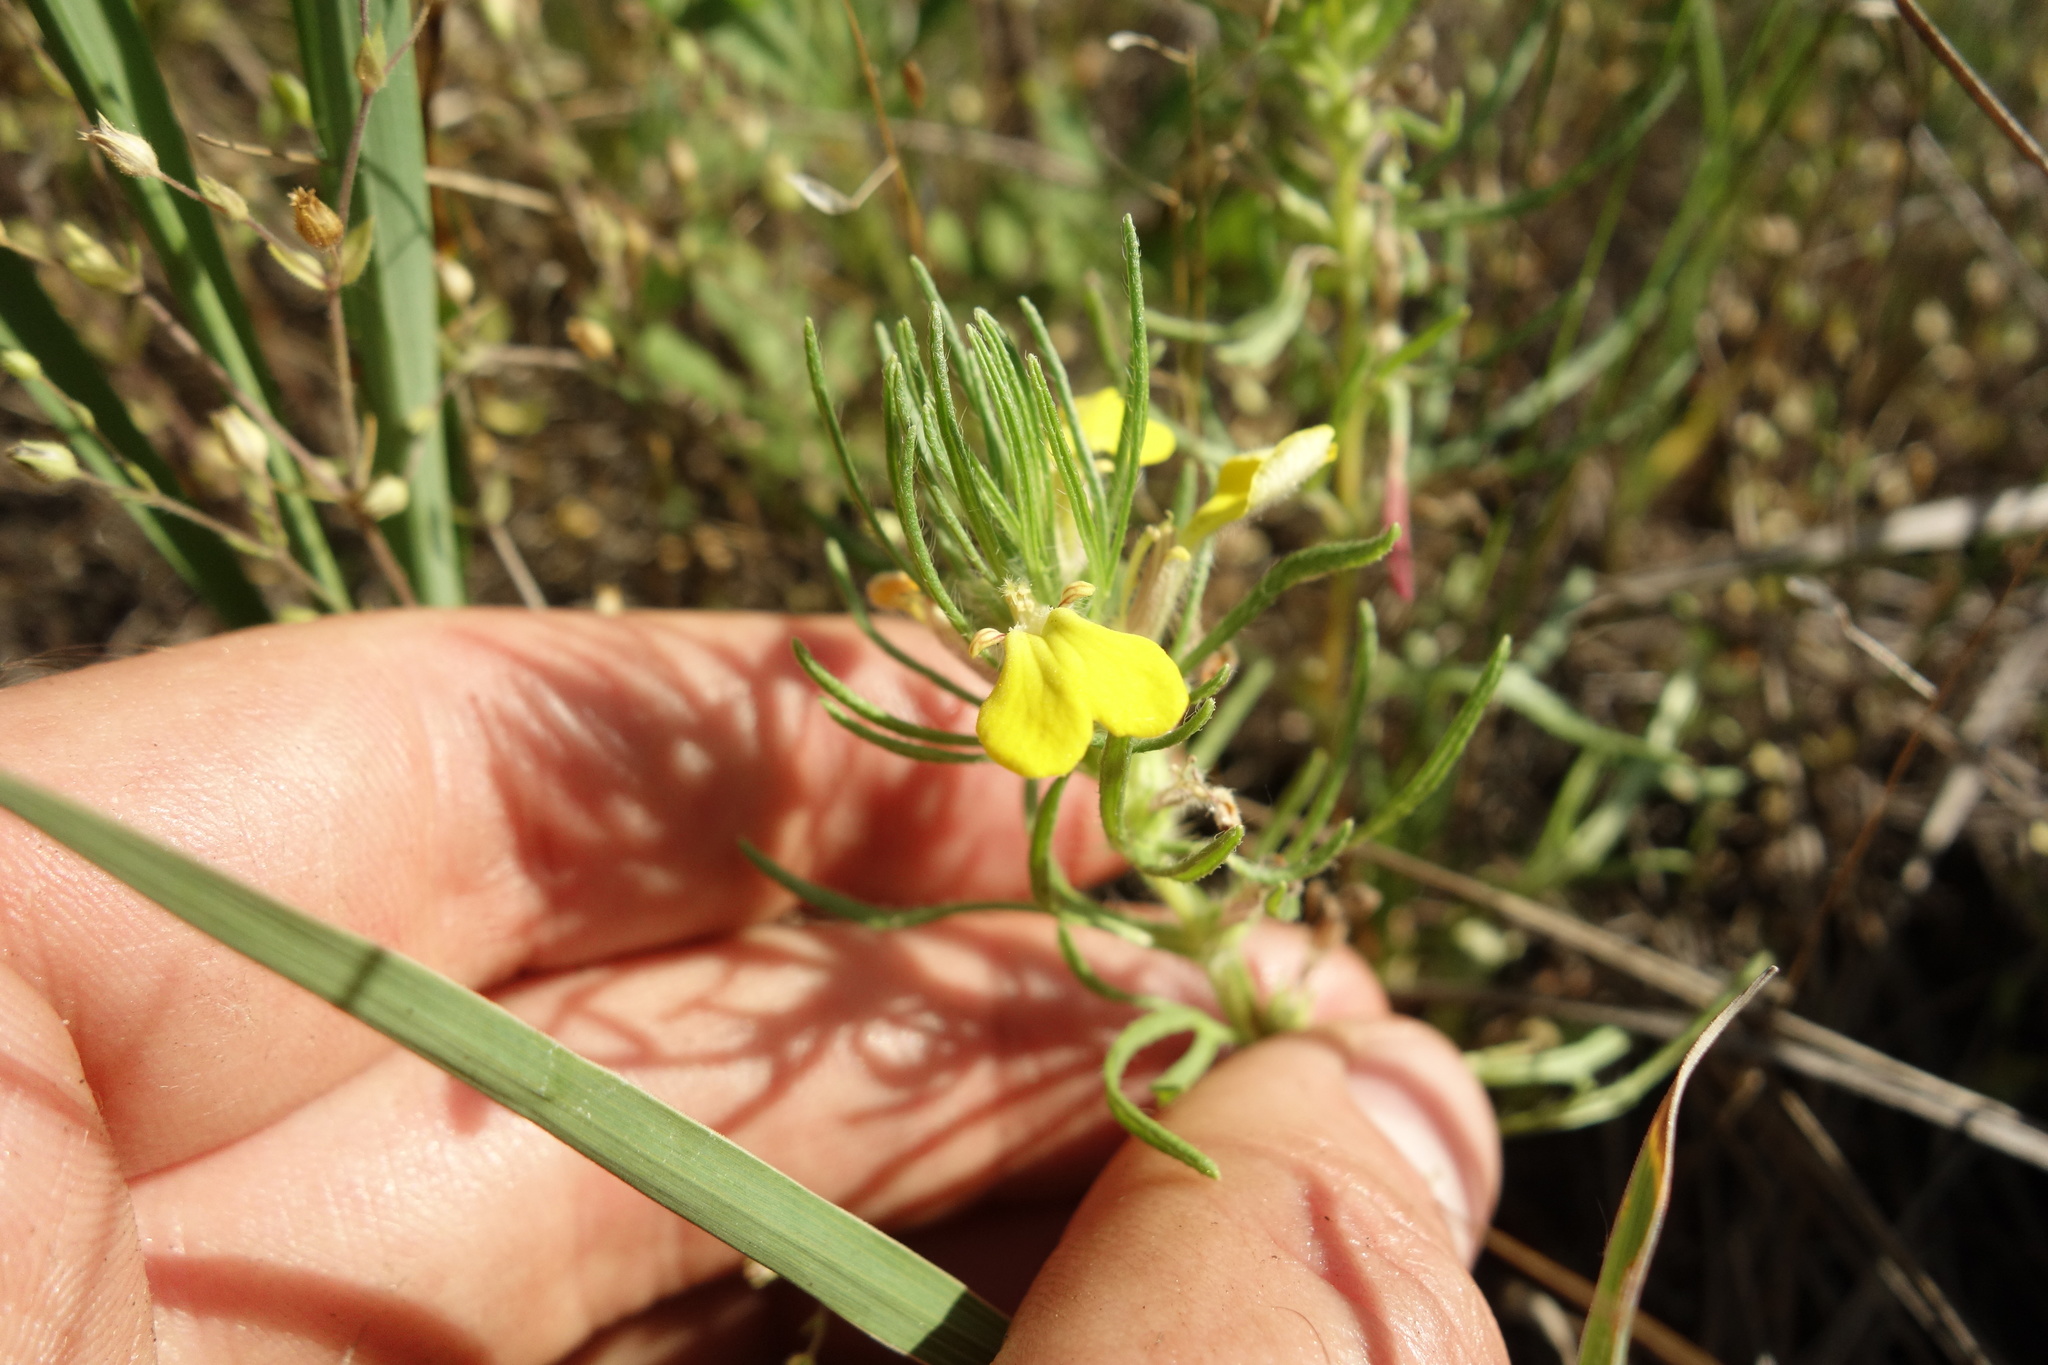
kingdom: Plantae
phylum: Tracheophyta
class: Magnoliopsida
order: Lamiales
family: Lamiaceae
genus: Ajuga
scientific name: Ajuga chamaepitys
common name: Ground-pine
